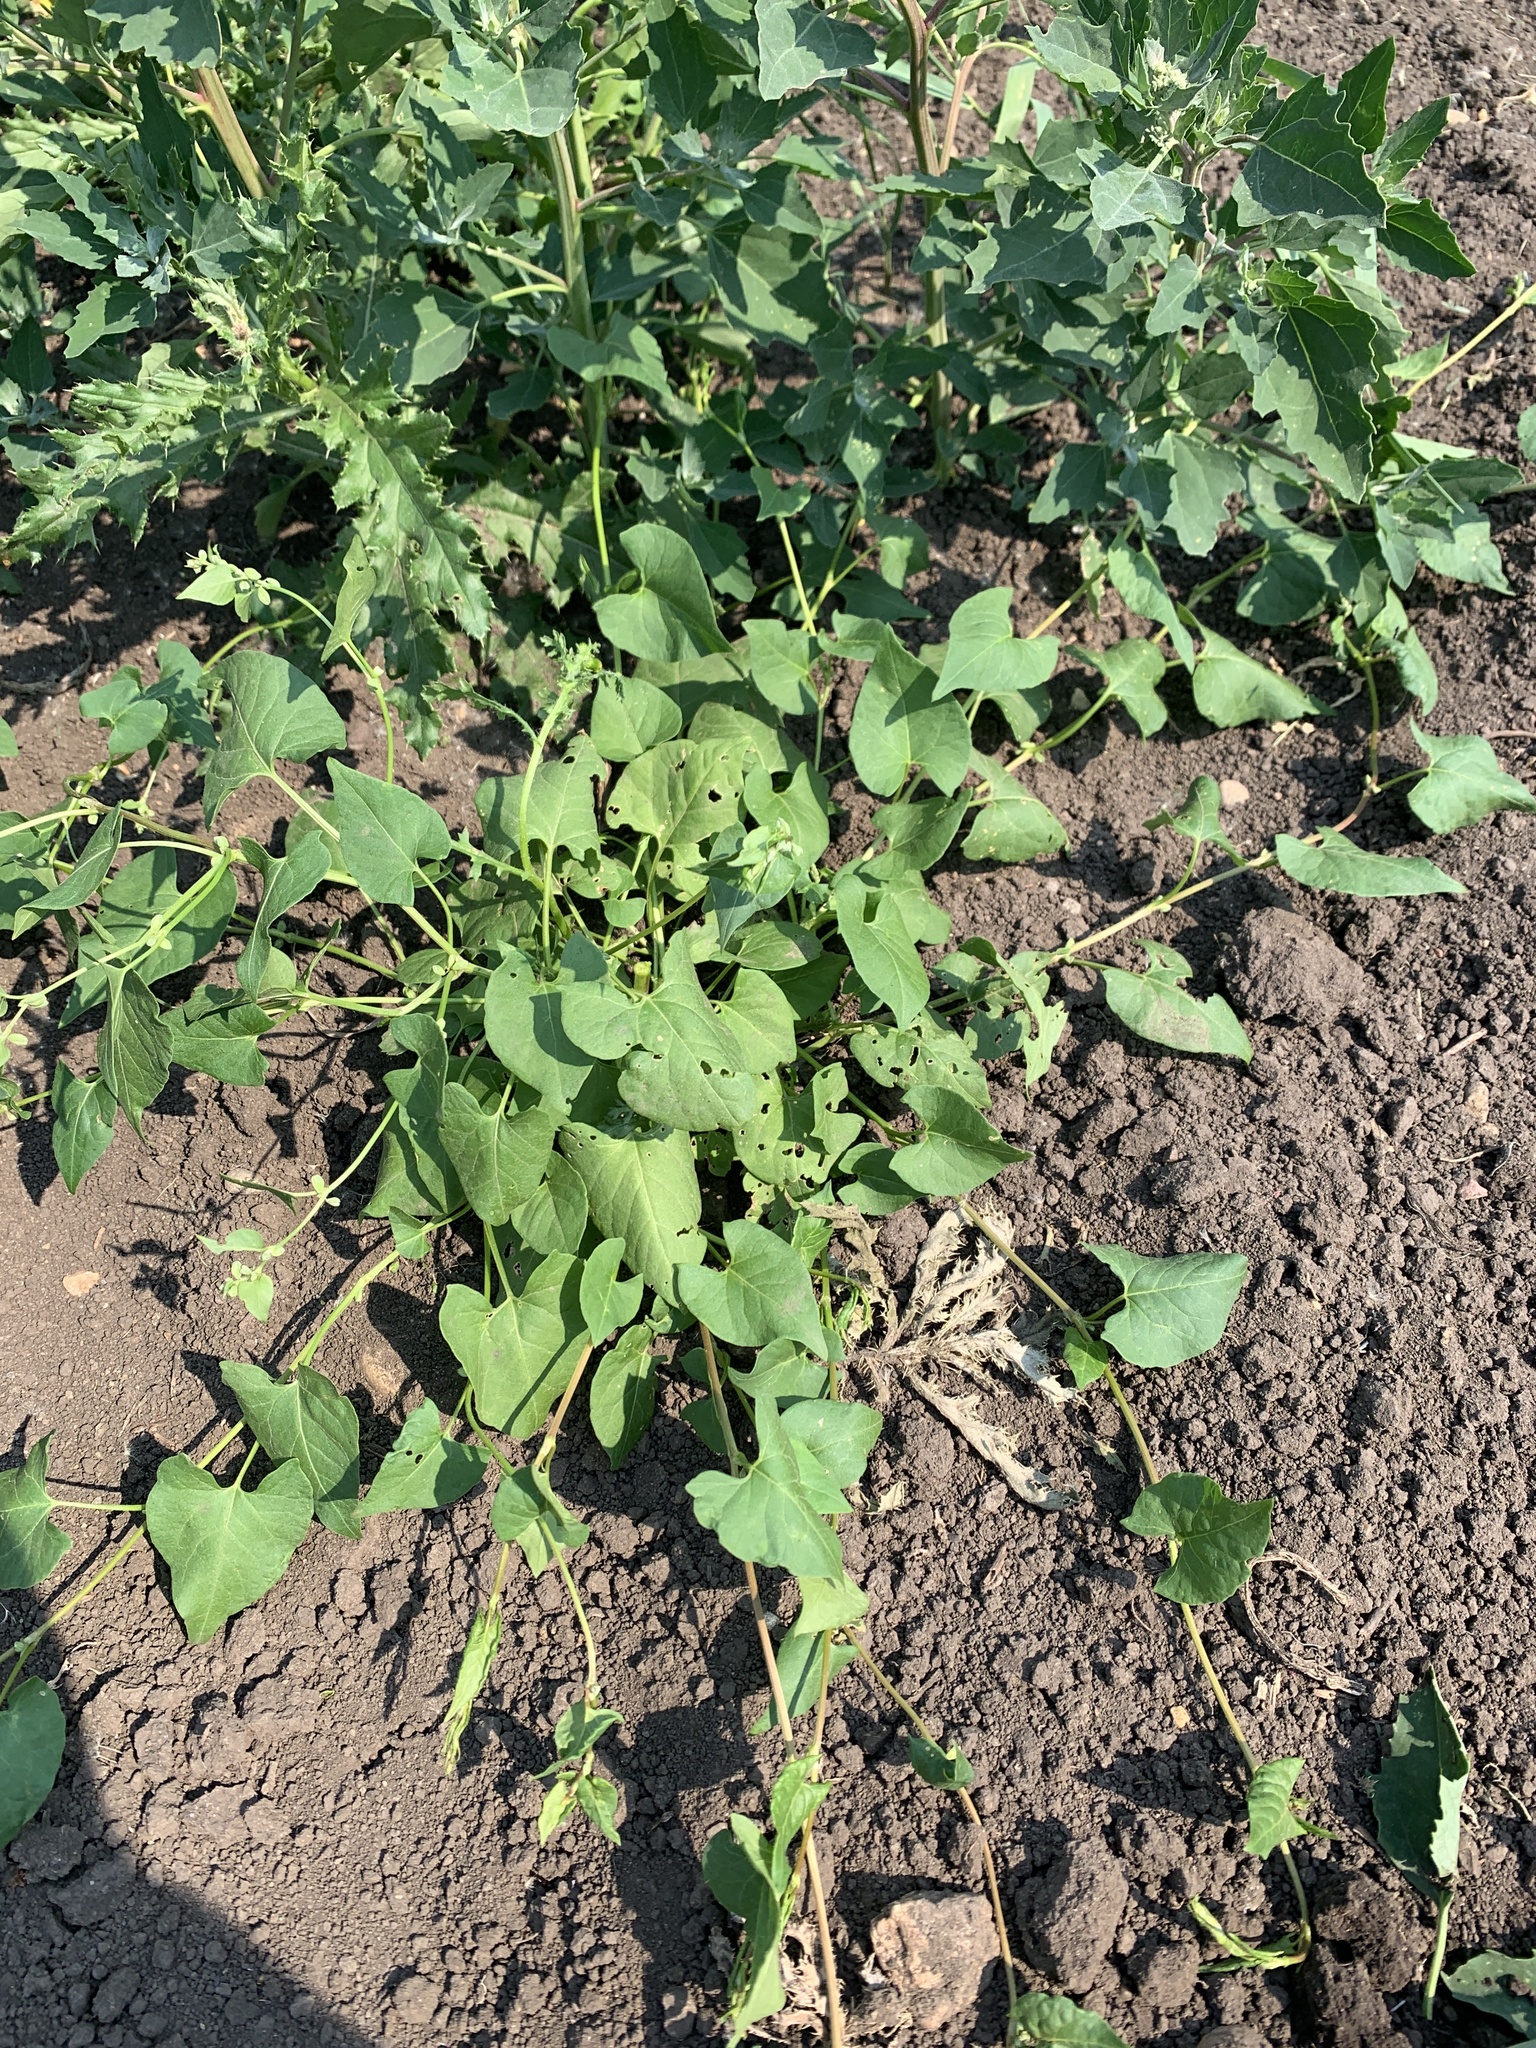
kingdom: Plantae
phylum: Tracheophyta
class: Magnoliopsida
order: Caryophyllales
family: Polygonaceae
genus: Fallopia
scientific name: Fallopia convolvulus
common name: Black bindweed
